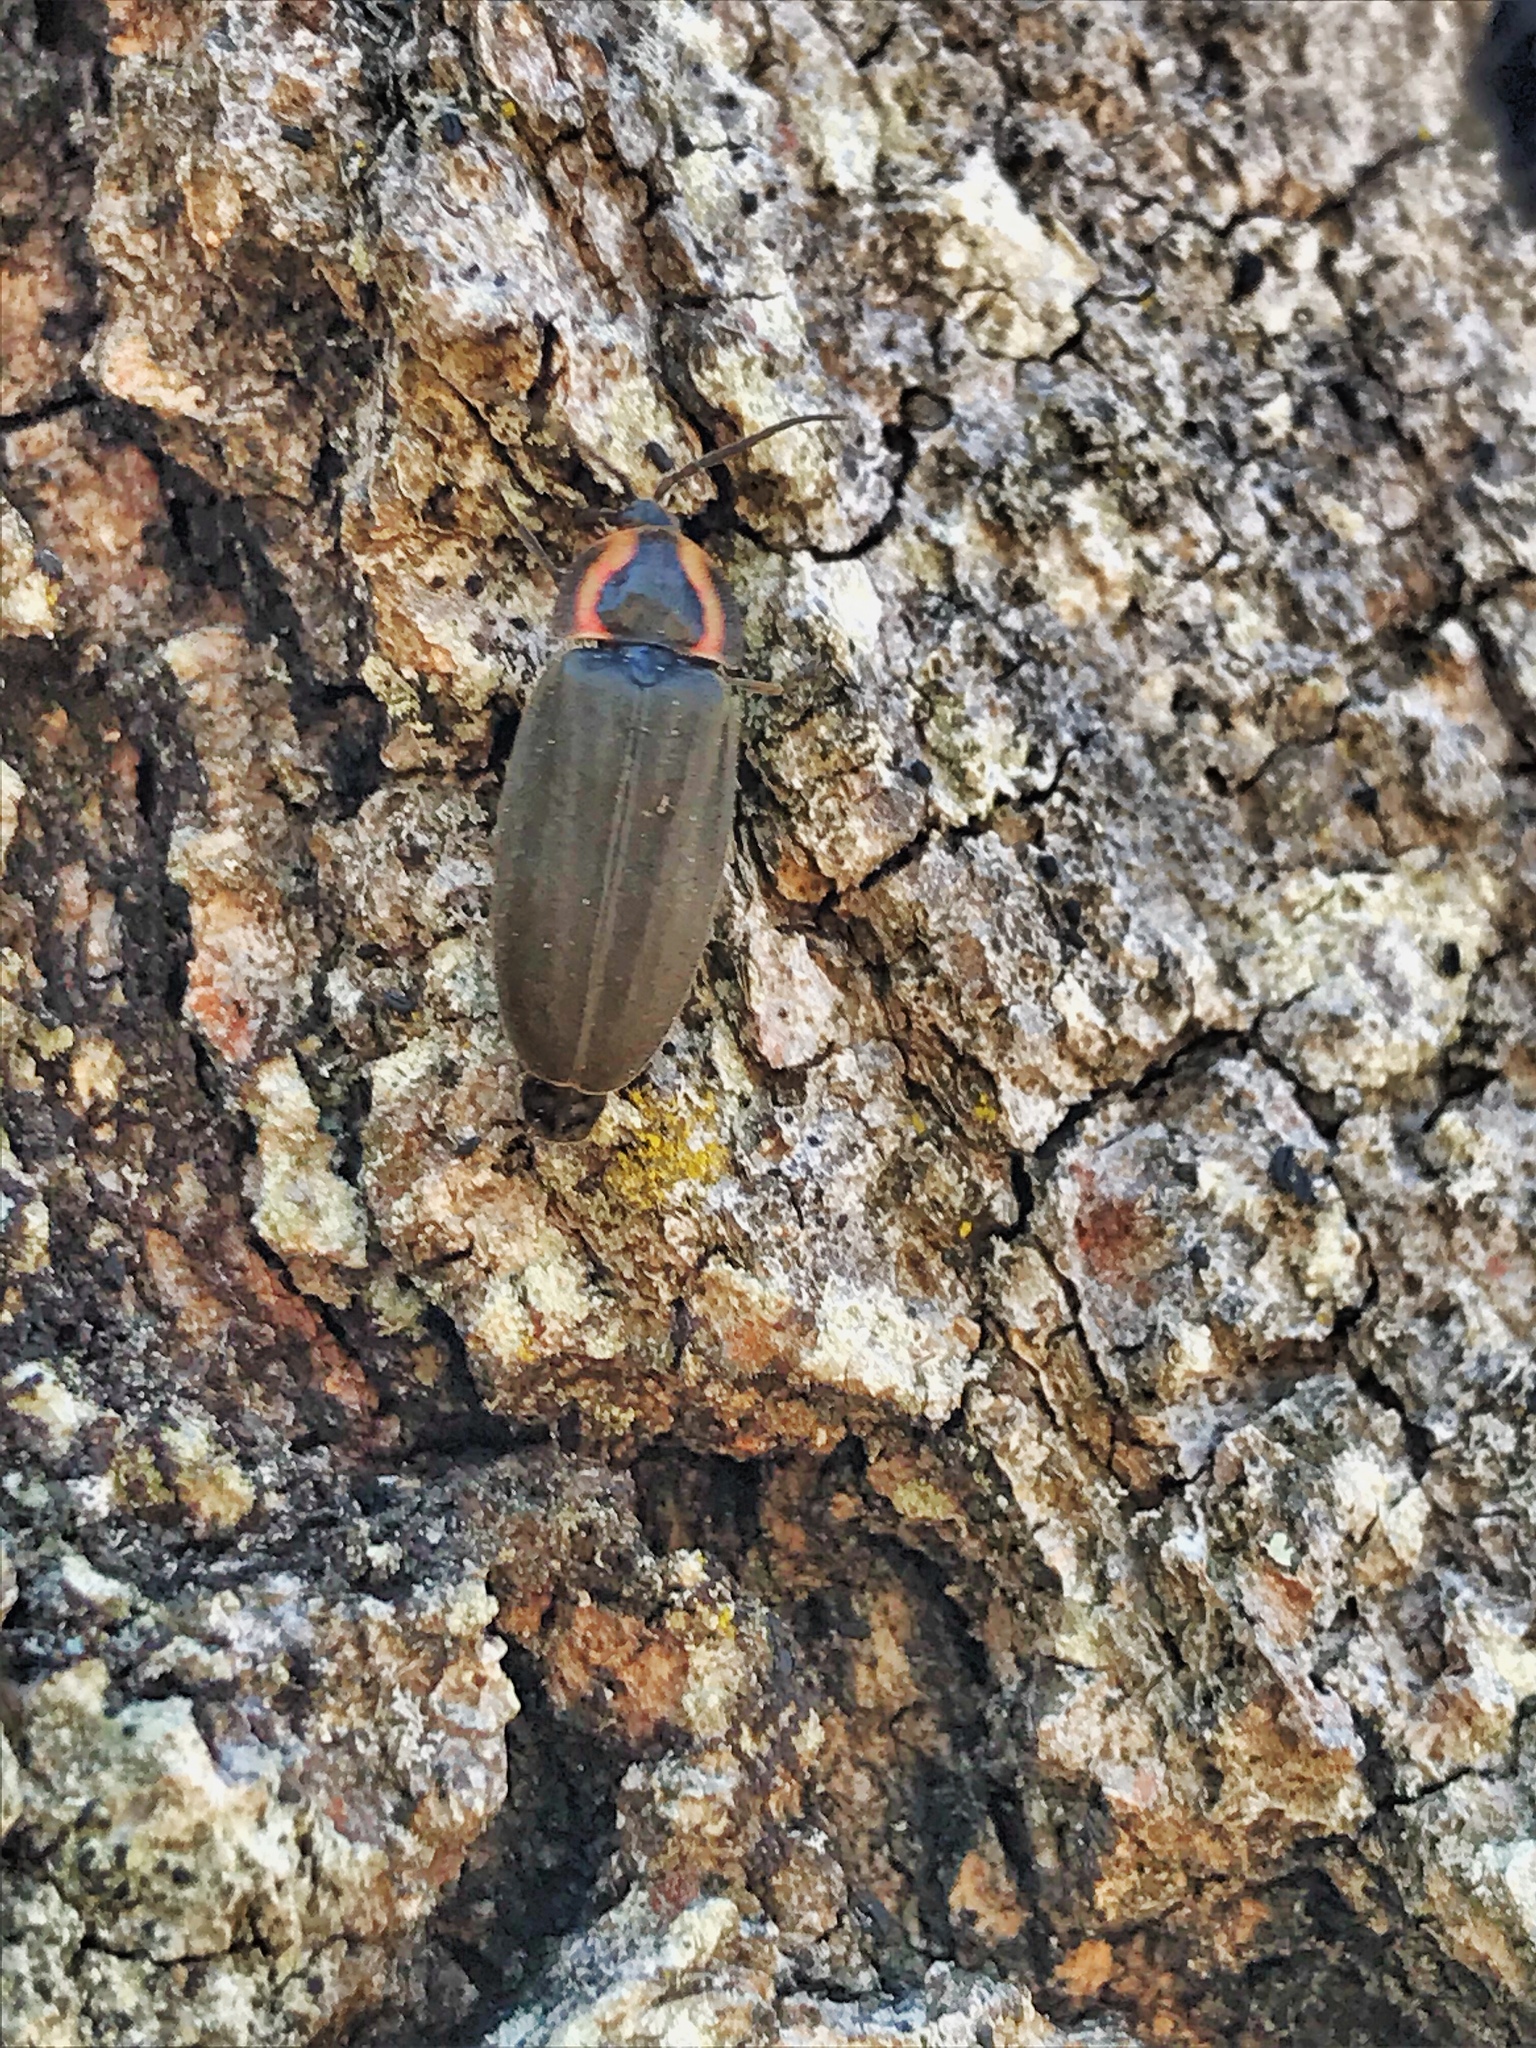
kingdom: Animalia
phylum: Arthropoda
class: Insecta
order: Coleoptera
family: Lampyridae
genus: Photinus
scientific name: Photinus corrusca
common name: Winter firefly
